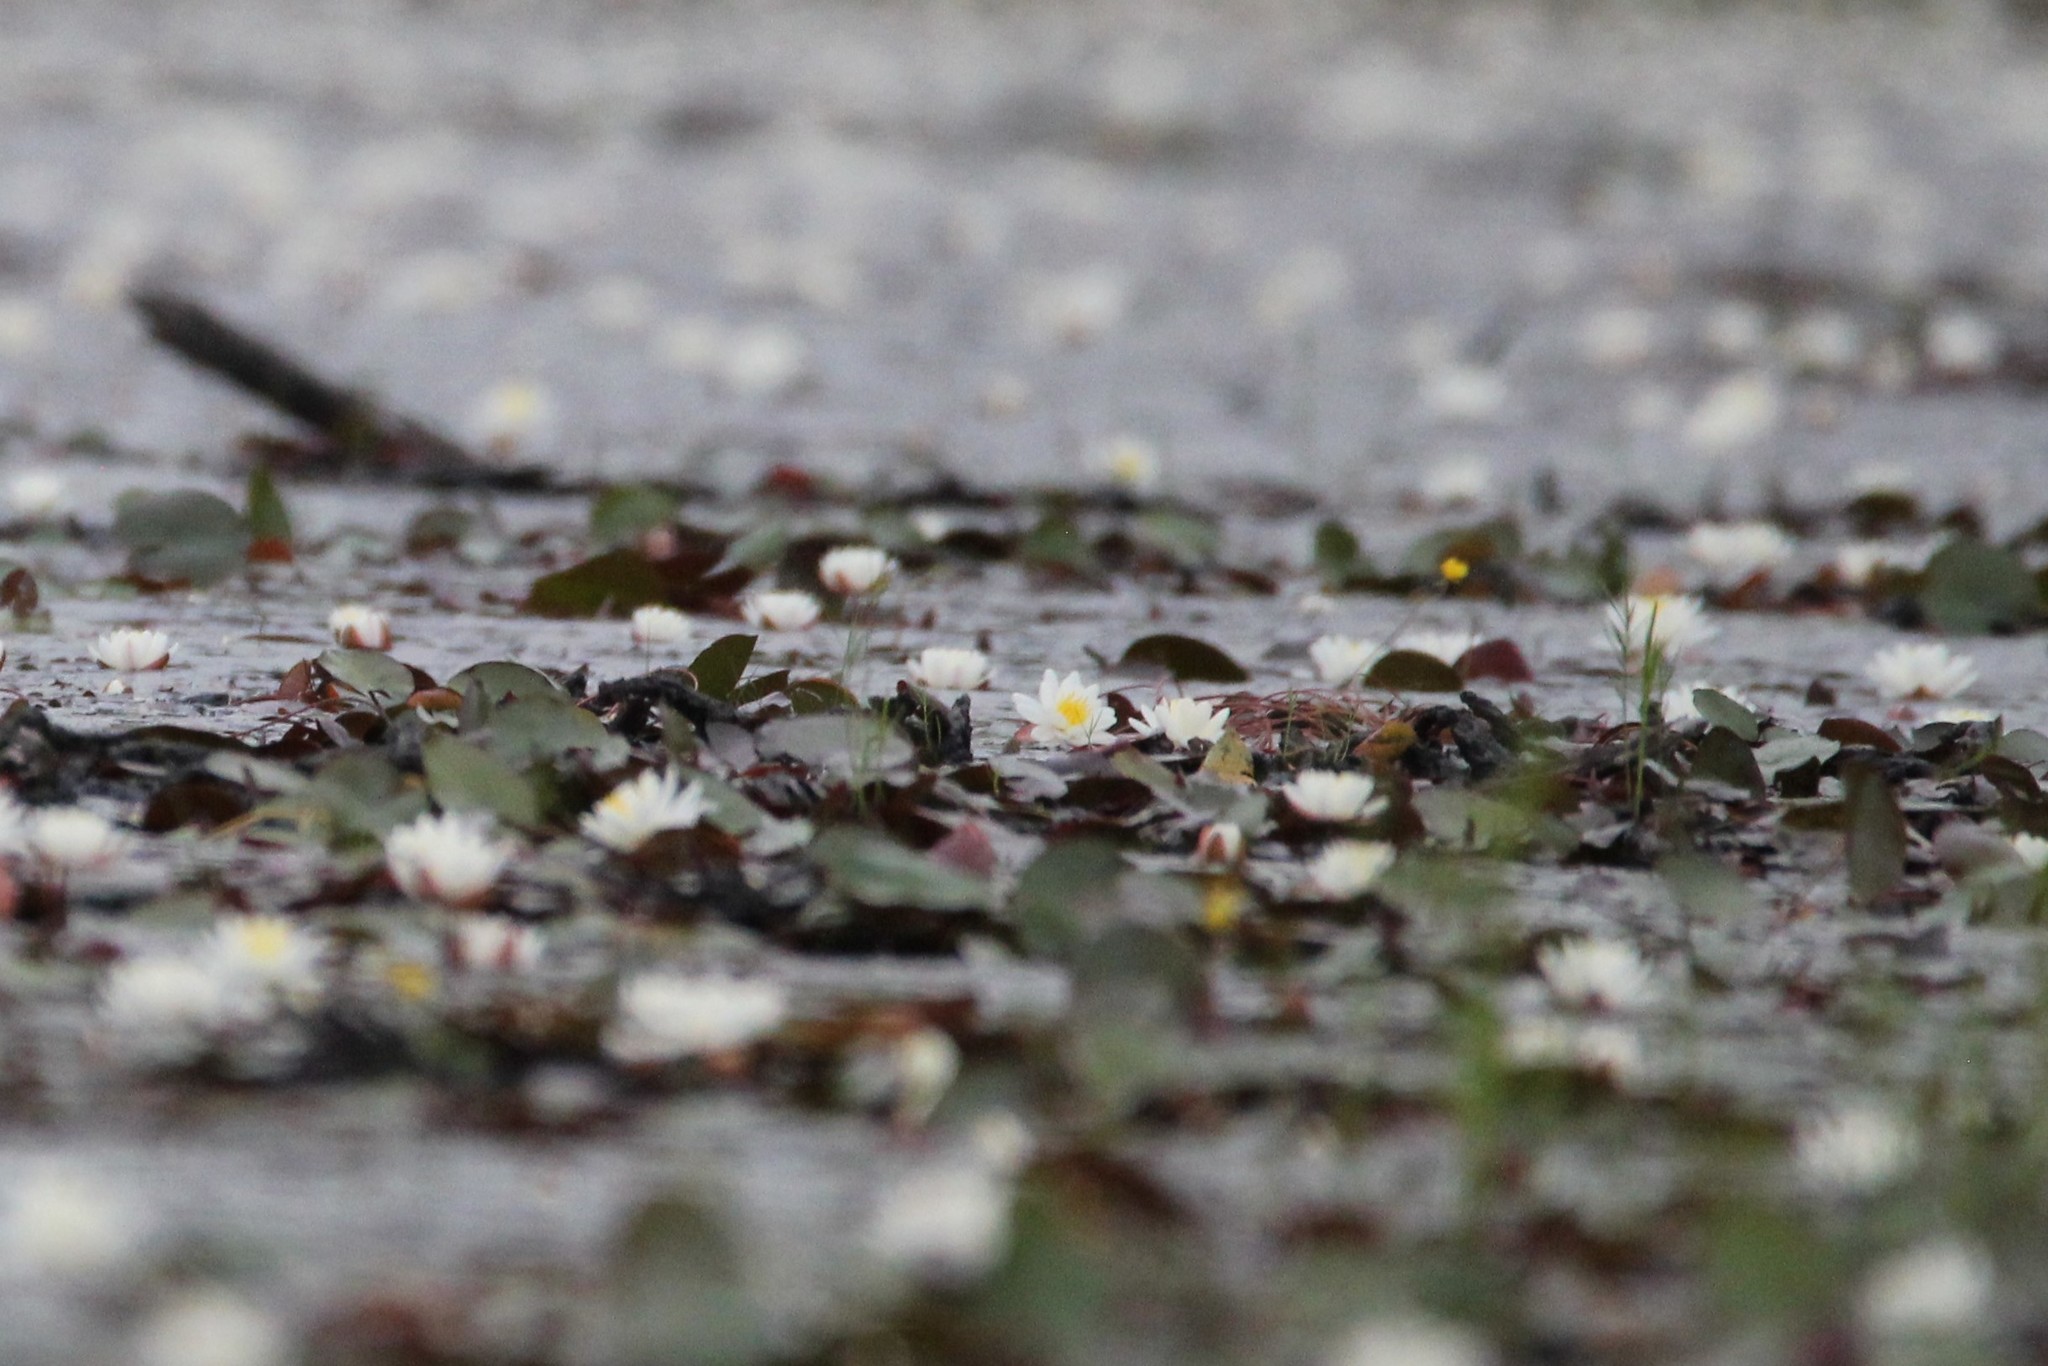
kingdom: Plantae
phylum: Tracheophyta
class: Magnoliopsida
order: Nymphaeales
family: Nymphaeaceae
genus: Nymphaea
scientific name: Nymphaea odorata
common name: Fragrant water-lily
